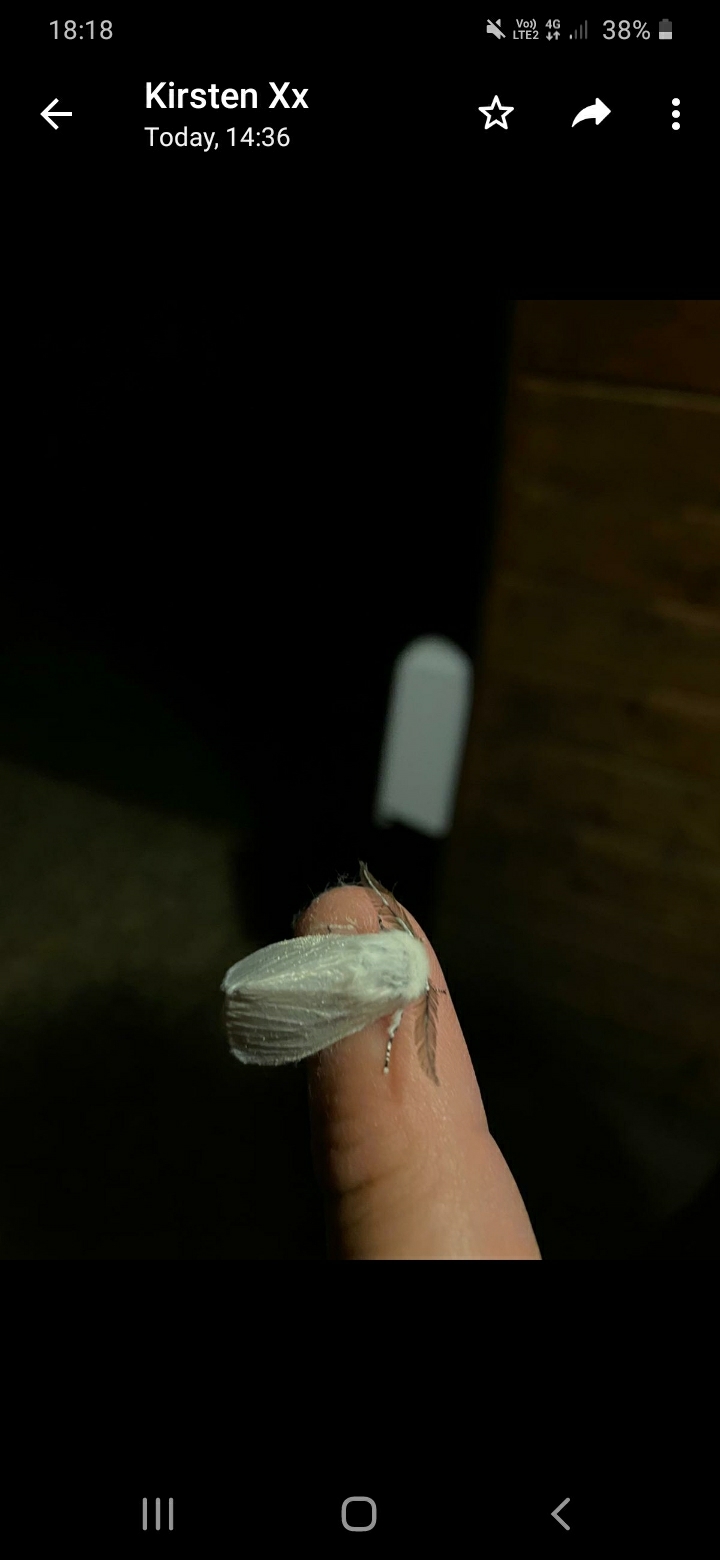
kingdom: Animalia
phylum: Arthropoda
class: Insecta
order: Lepidoptera
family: Erebidae
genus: Leucoma
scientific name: Leucoma salicis
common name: White satin moth
